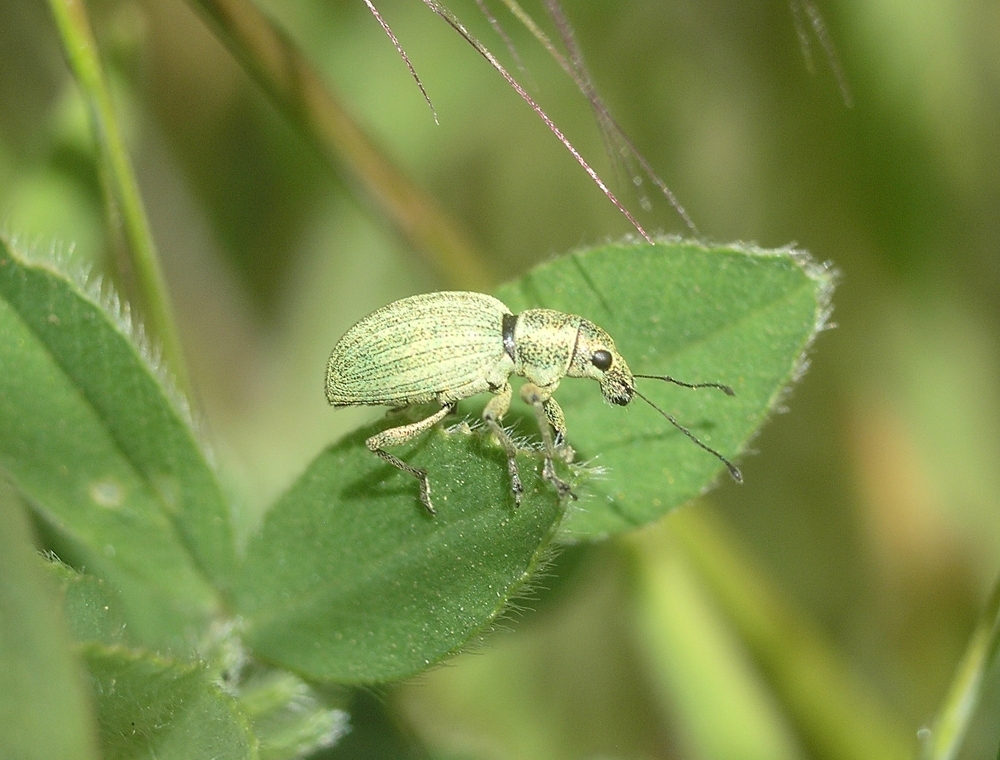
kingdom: Animalia
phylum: Arthropoda
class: Insecta
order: Coleoptera
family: Curculionidae
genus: Eusomus
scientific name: Eusomus ovulum
